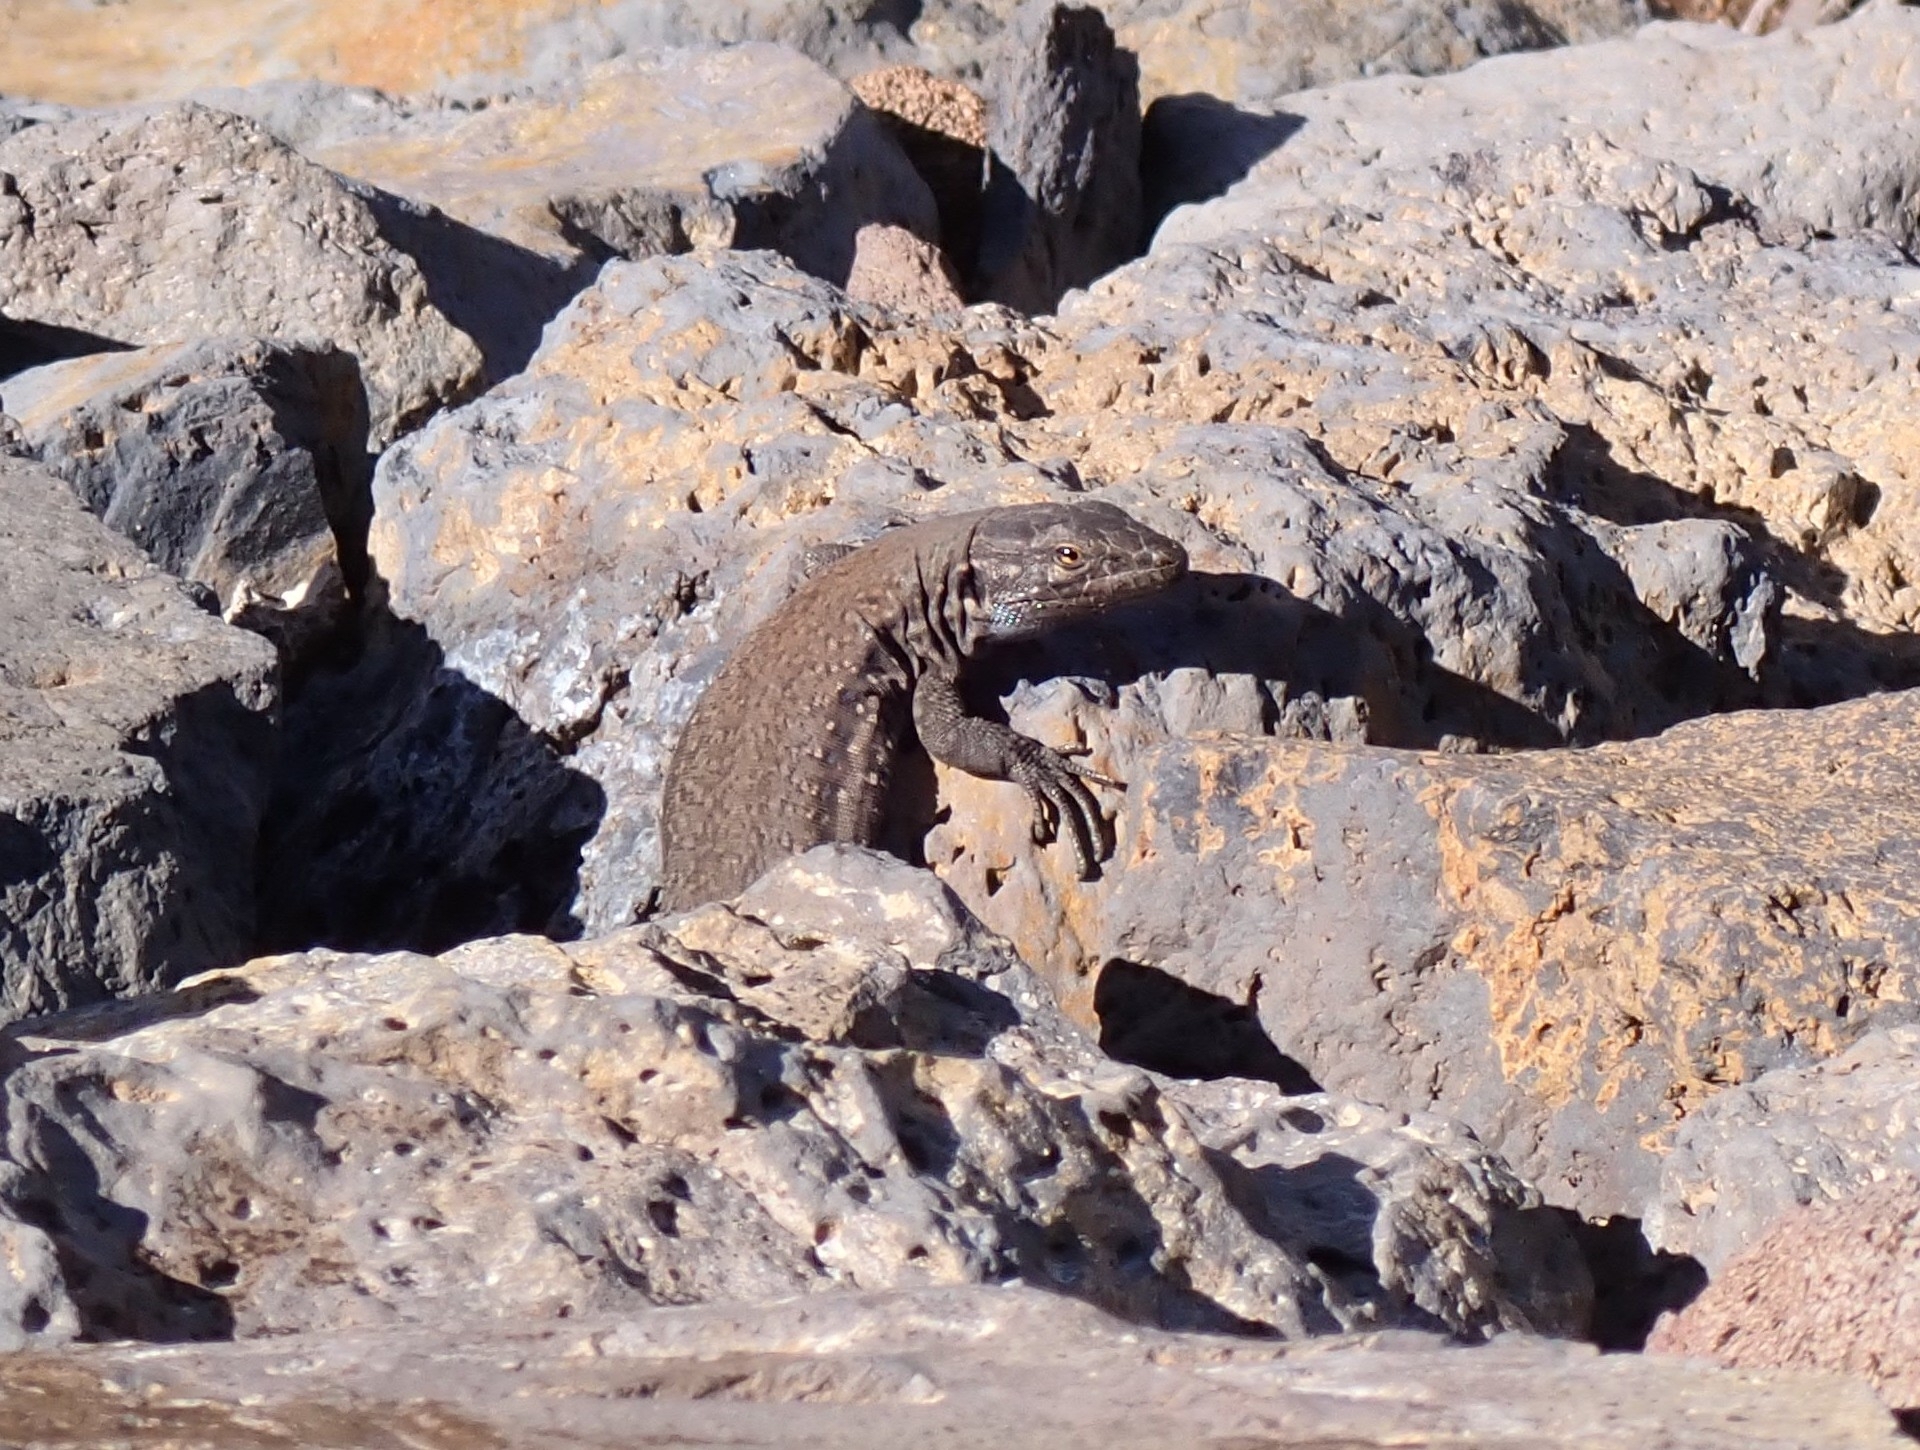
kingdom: Animalia
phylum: Chordata
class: Squamata
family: Lacertidae
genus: Gallotia
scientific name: Gallotia galloti
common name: Gallot's lizard
